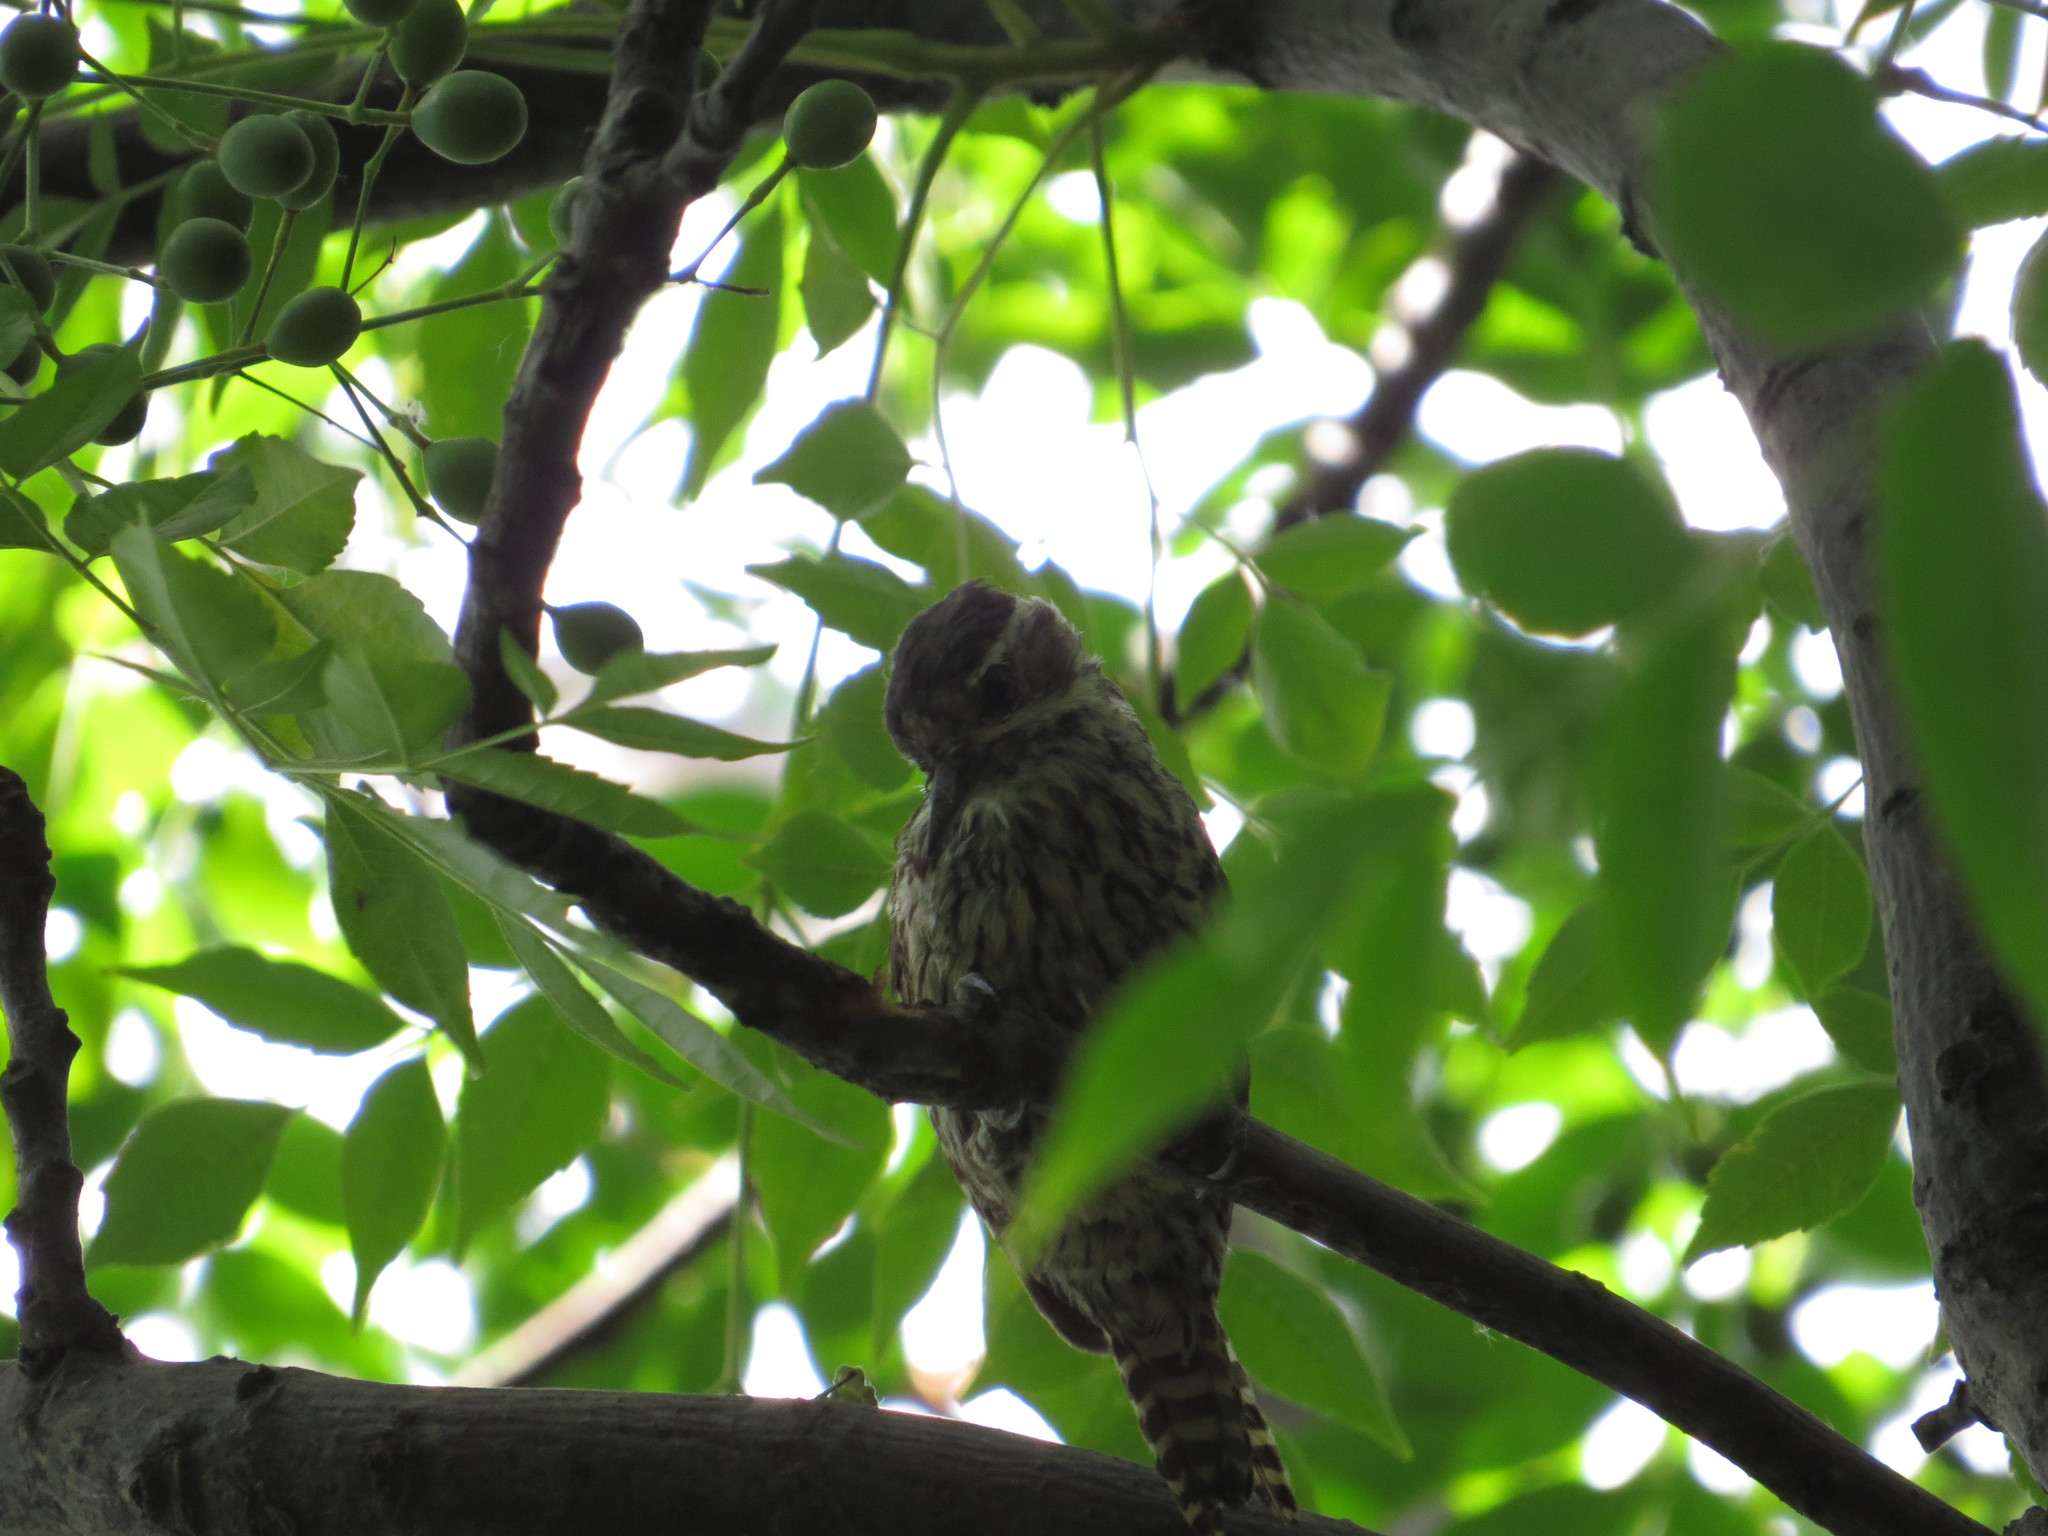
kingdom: Animalia
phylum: Chordata
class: Aves
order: Piciformes
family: Picidae
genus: Veniliornis
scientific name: Veniliornis mixtus
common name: Checkered woodpecker
